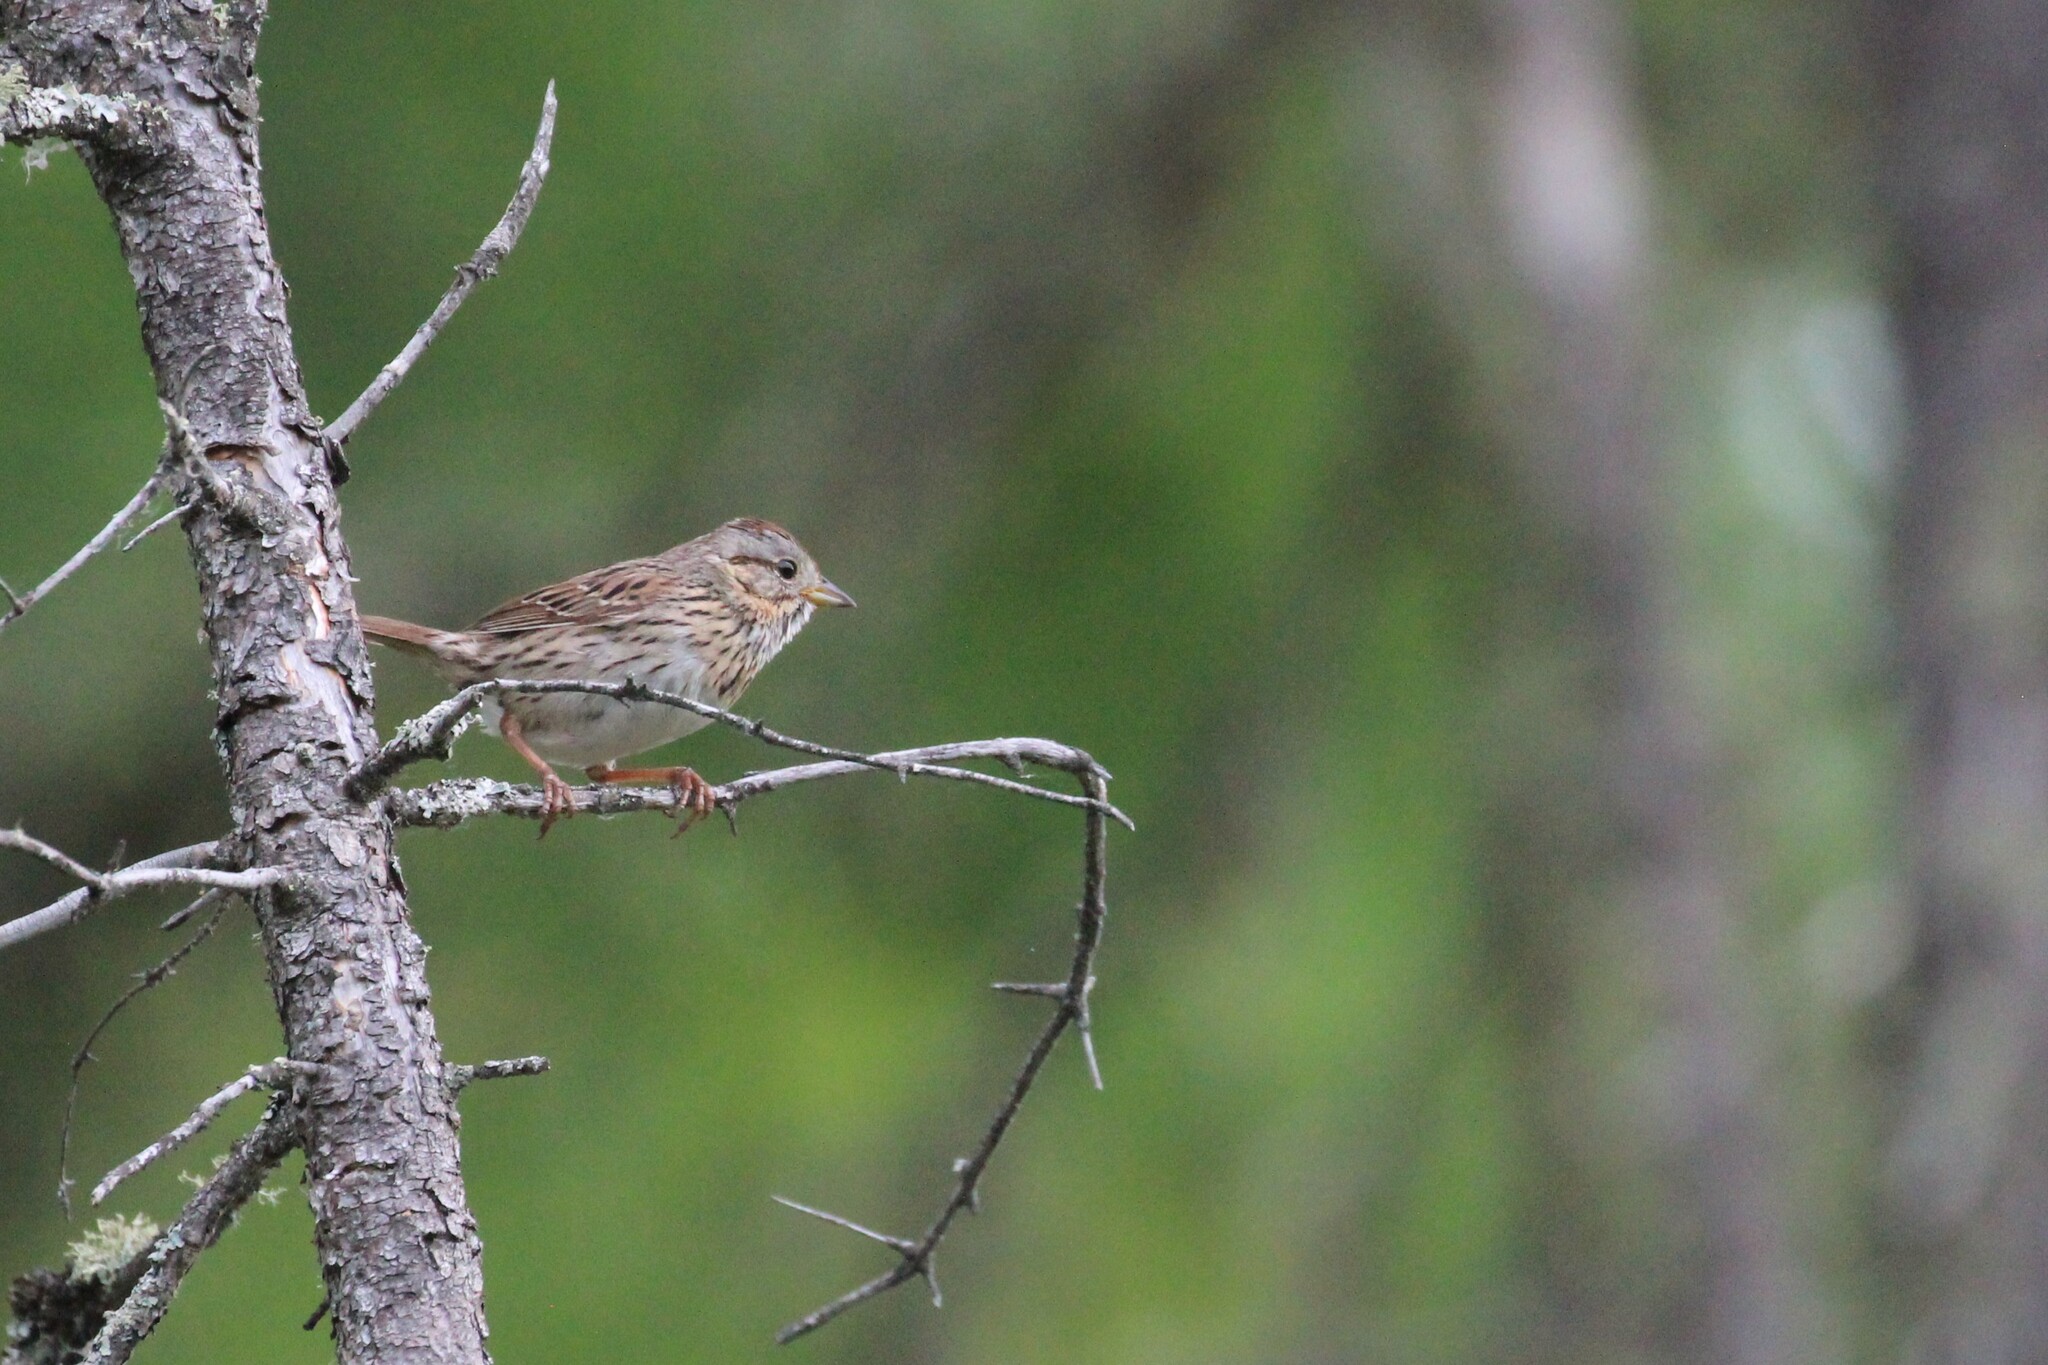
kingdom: Animalia
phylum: Chordata
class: Aves
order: Passeriformes
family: Passerellidae
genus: Melospiza
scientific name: Melospiza lincolnii
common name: Lincoln's sparrow
